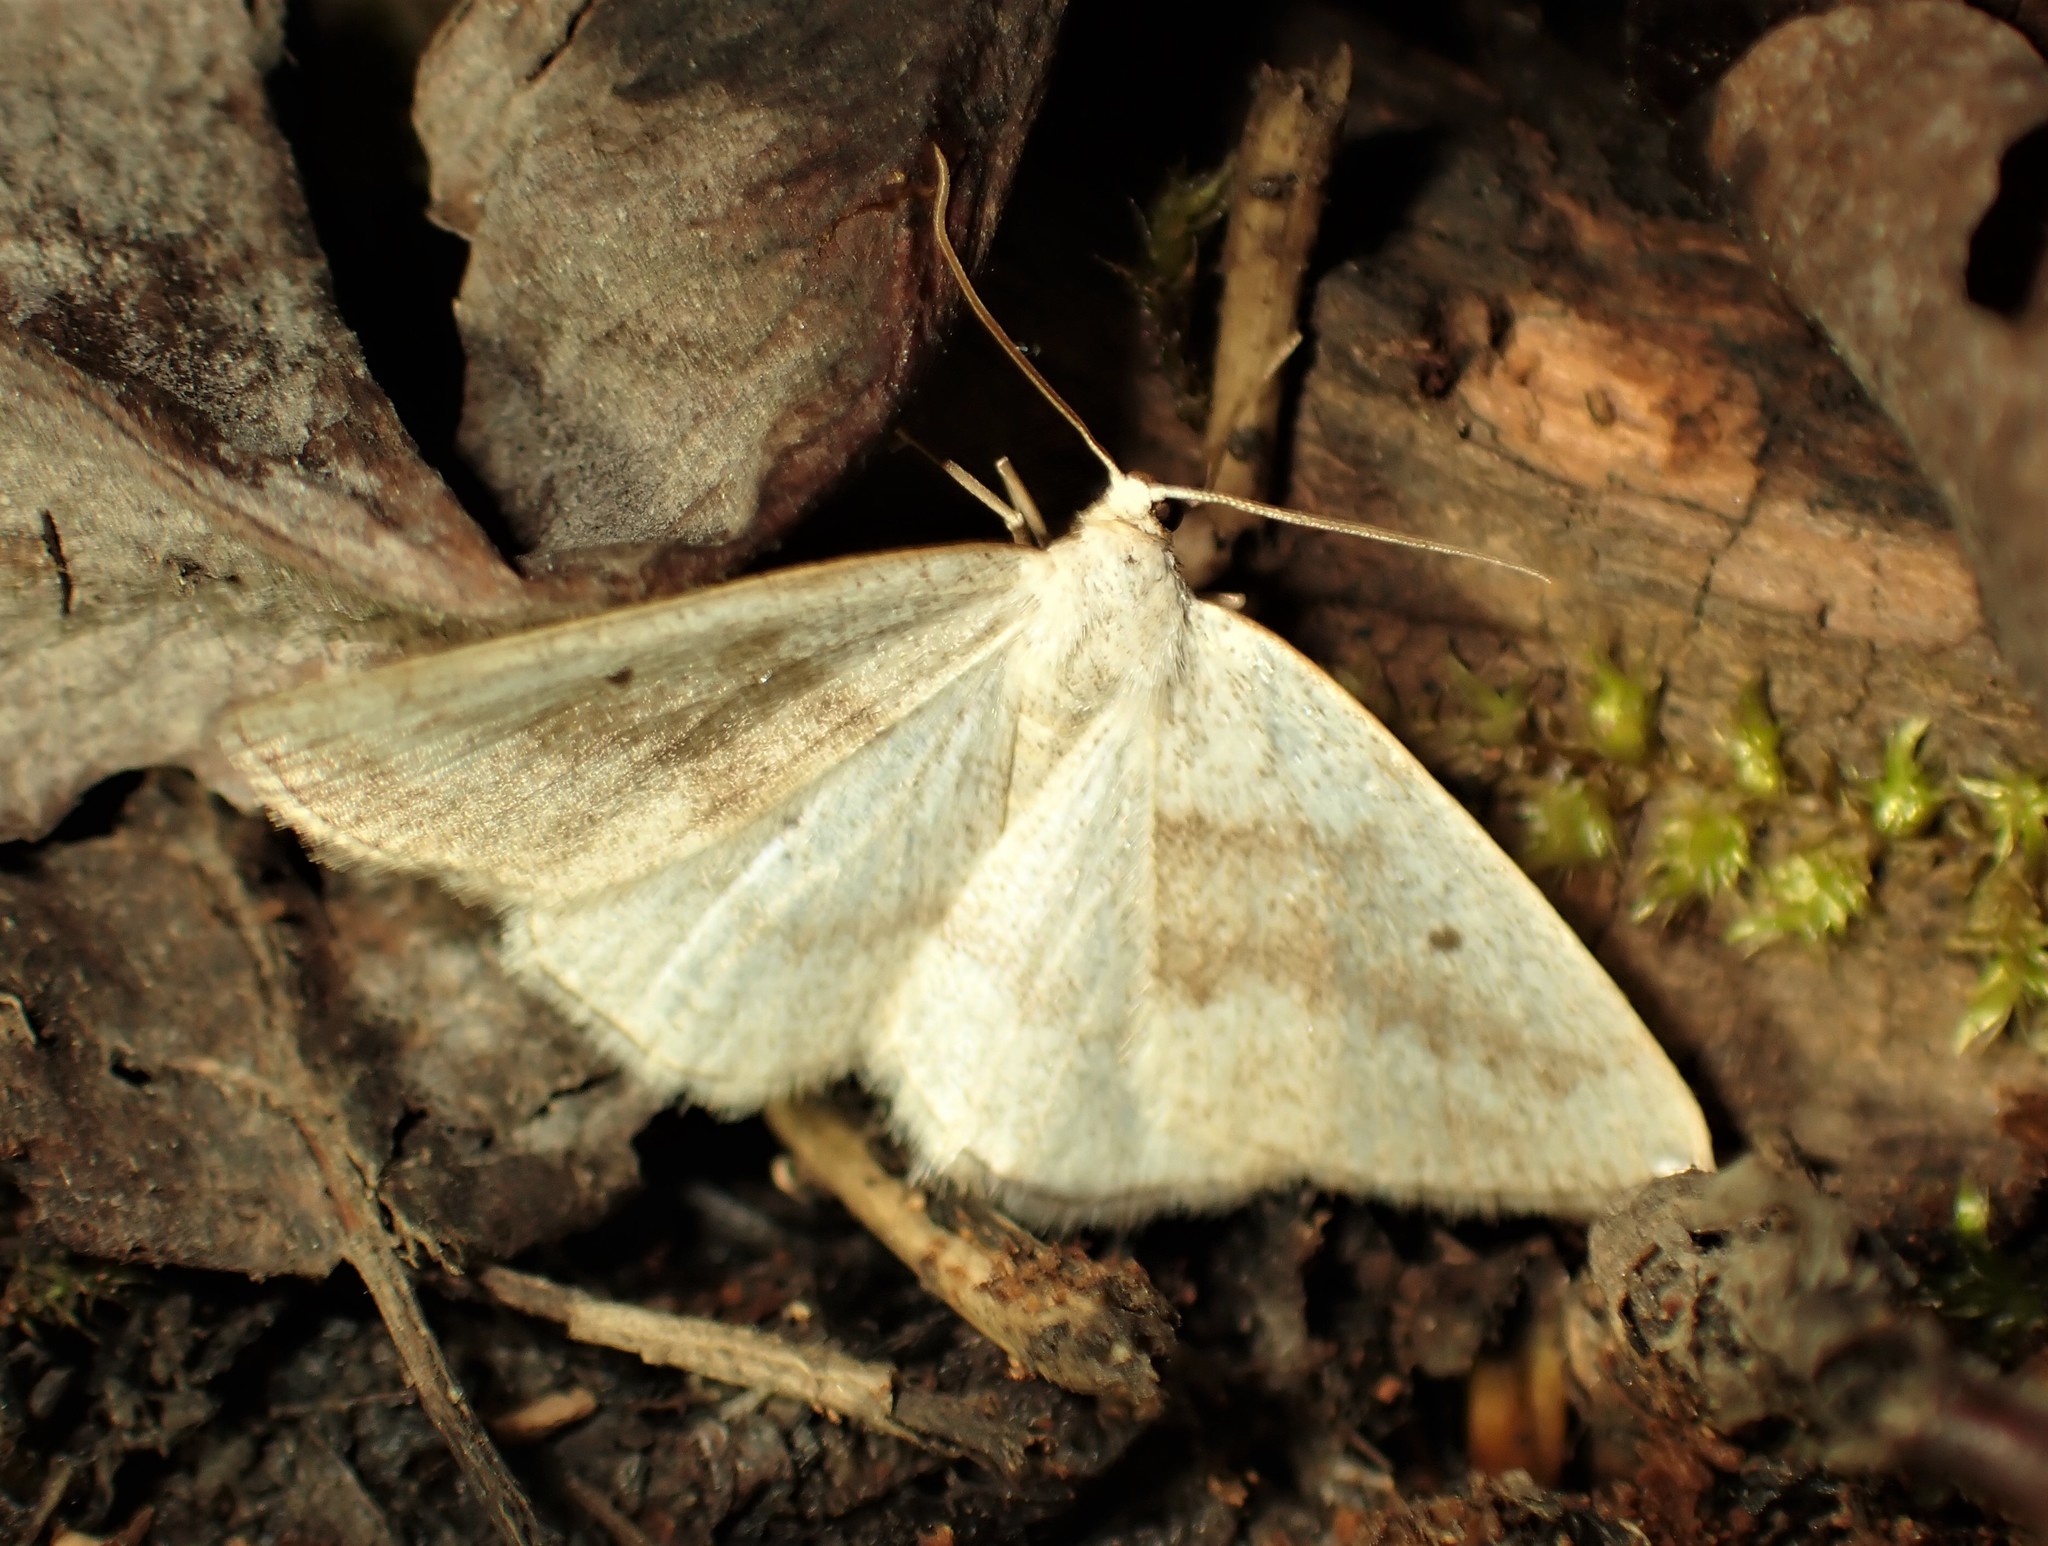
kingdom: Animalia
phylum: Arthropoda
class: Insecta
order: Lepidoptera
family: Geometridae
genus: Lomographa
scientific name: Lomographa glomeraria
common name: Gray spring moth
